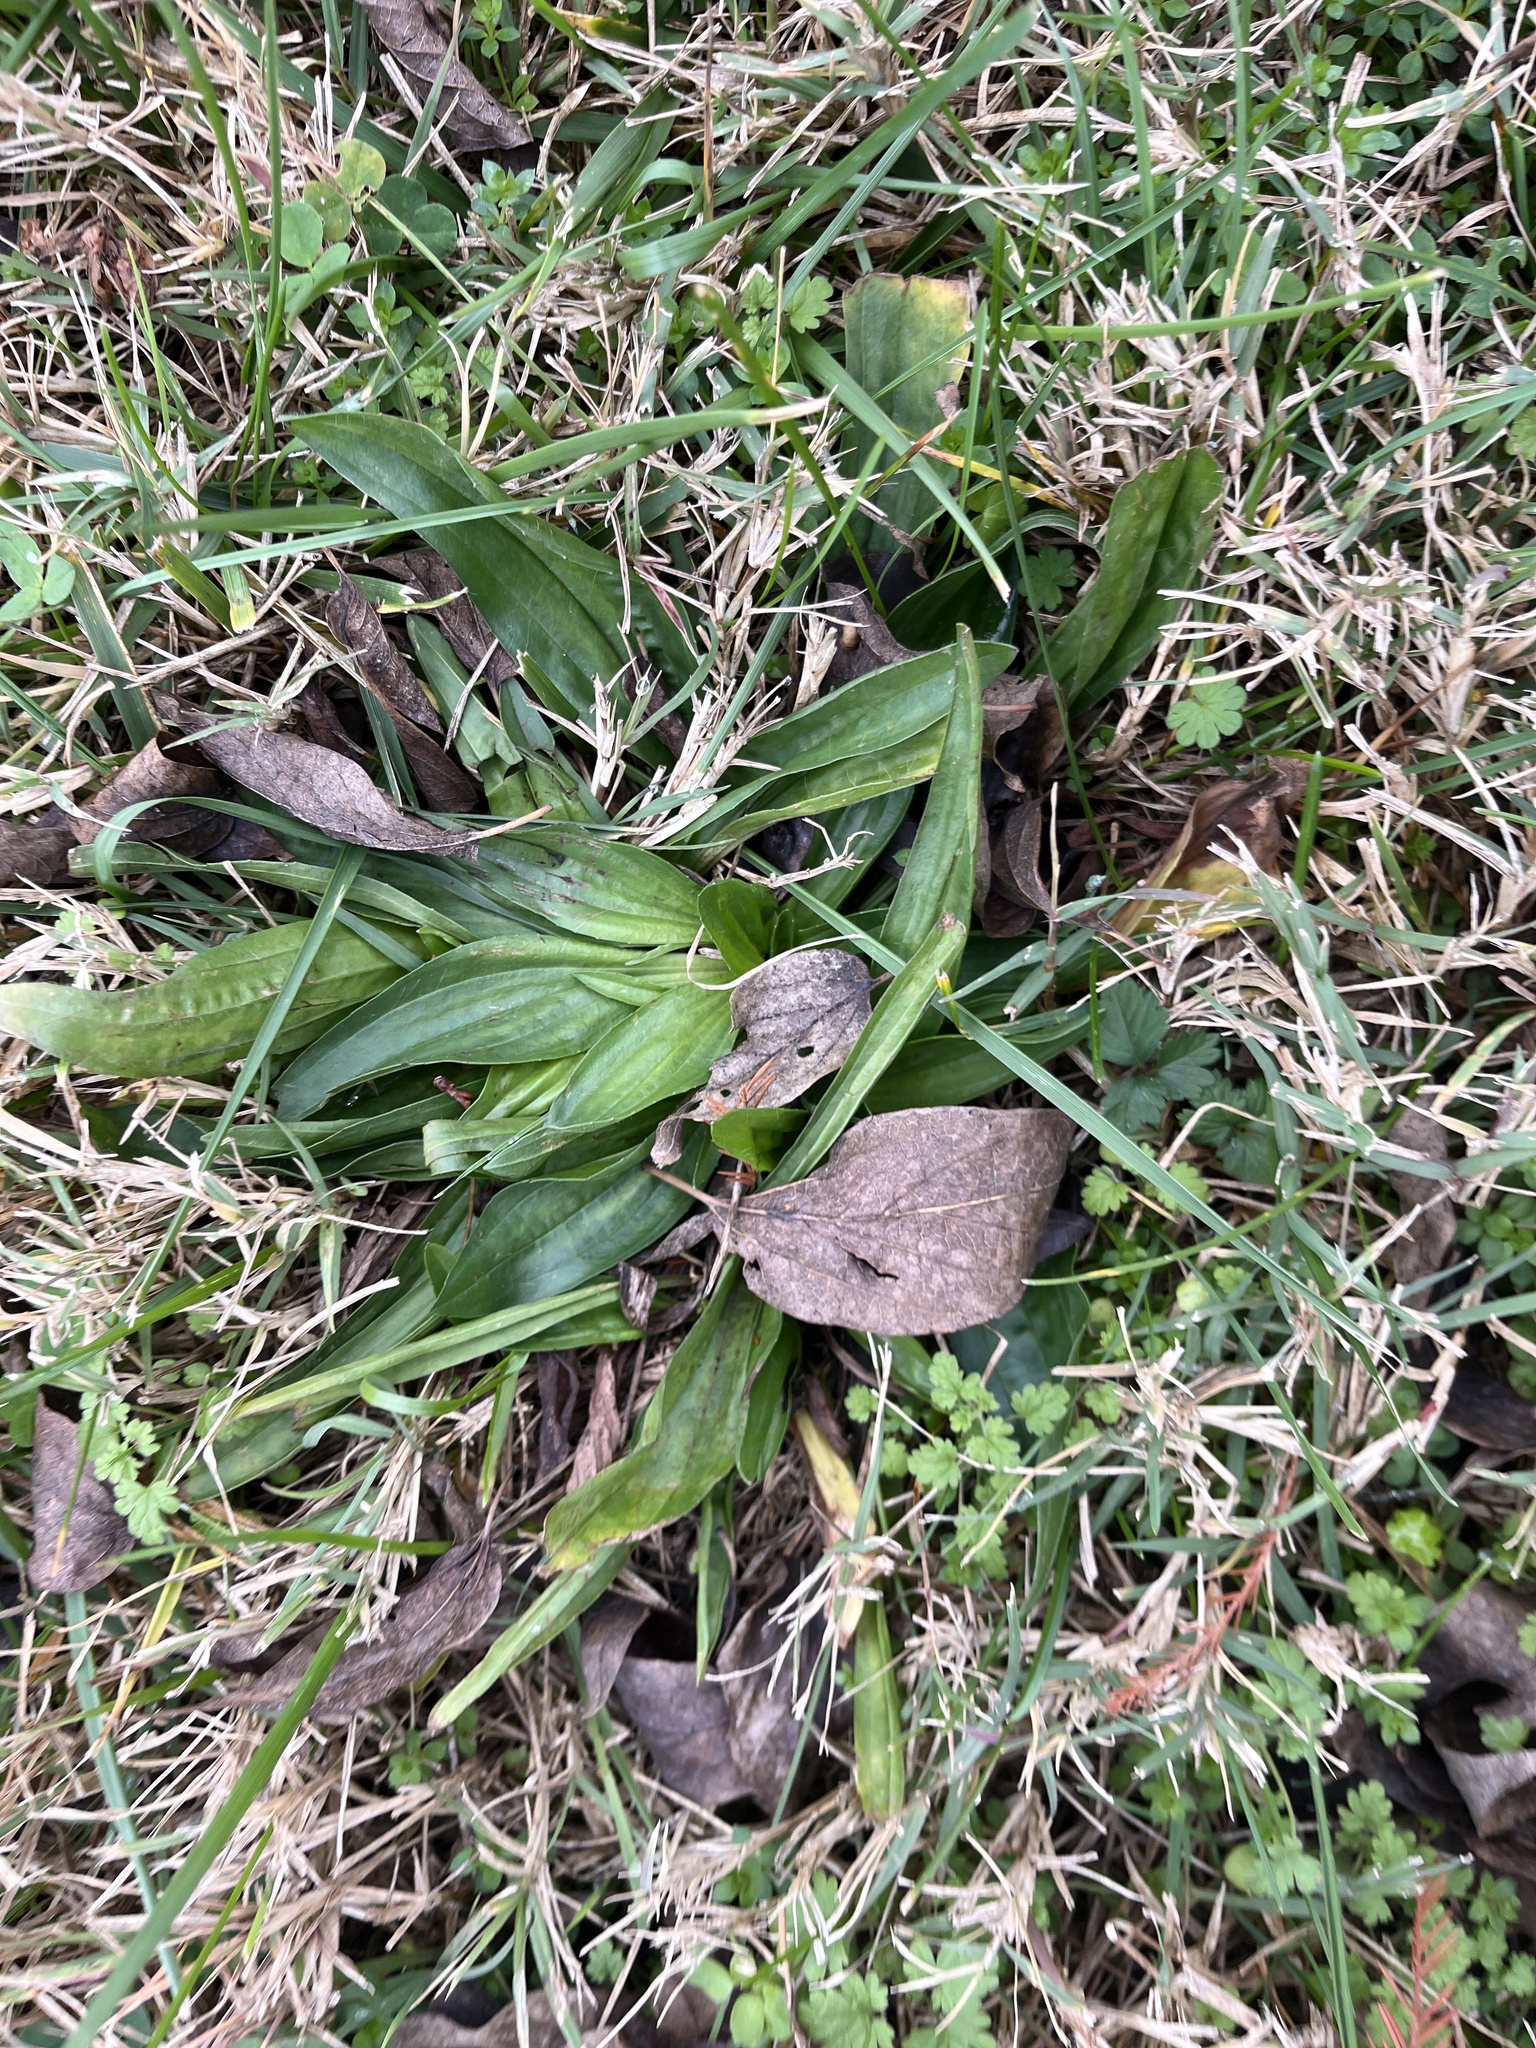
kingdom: Plantae
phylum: Tracheophyta
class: Magnoliopsida
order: Lamiales
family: Plantaginaceae
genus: Plantago
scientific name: Plantago lanceolata
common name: Ribwort plantain
